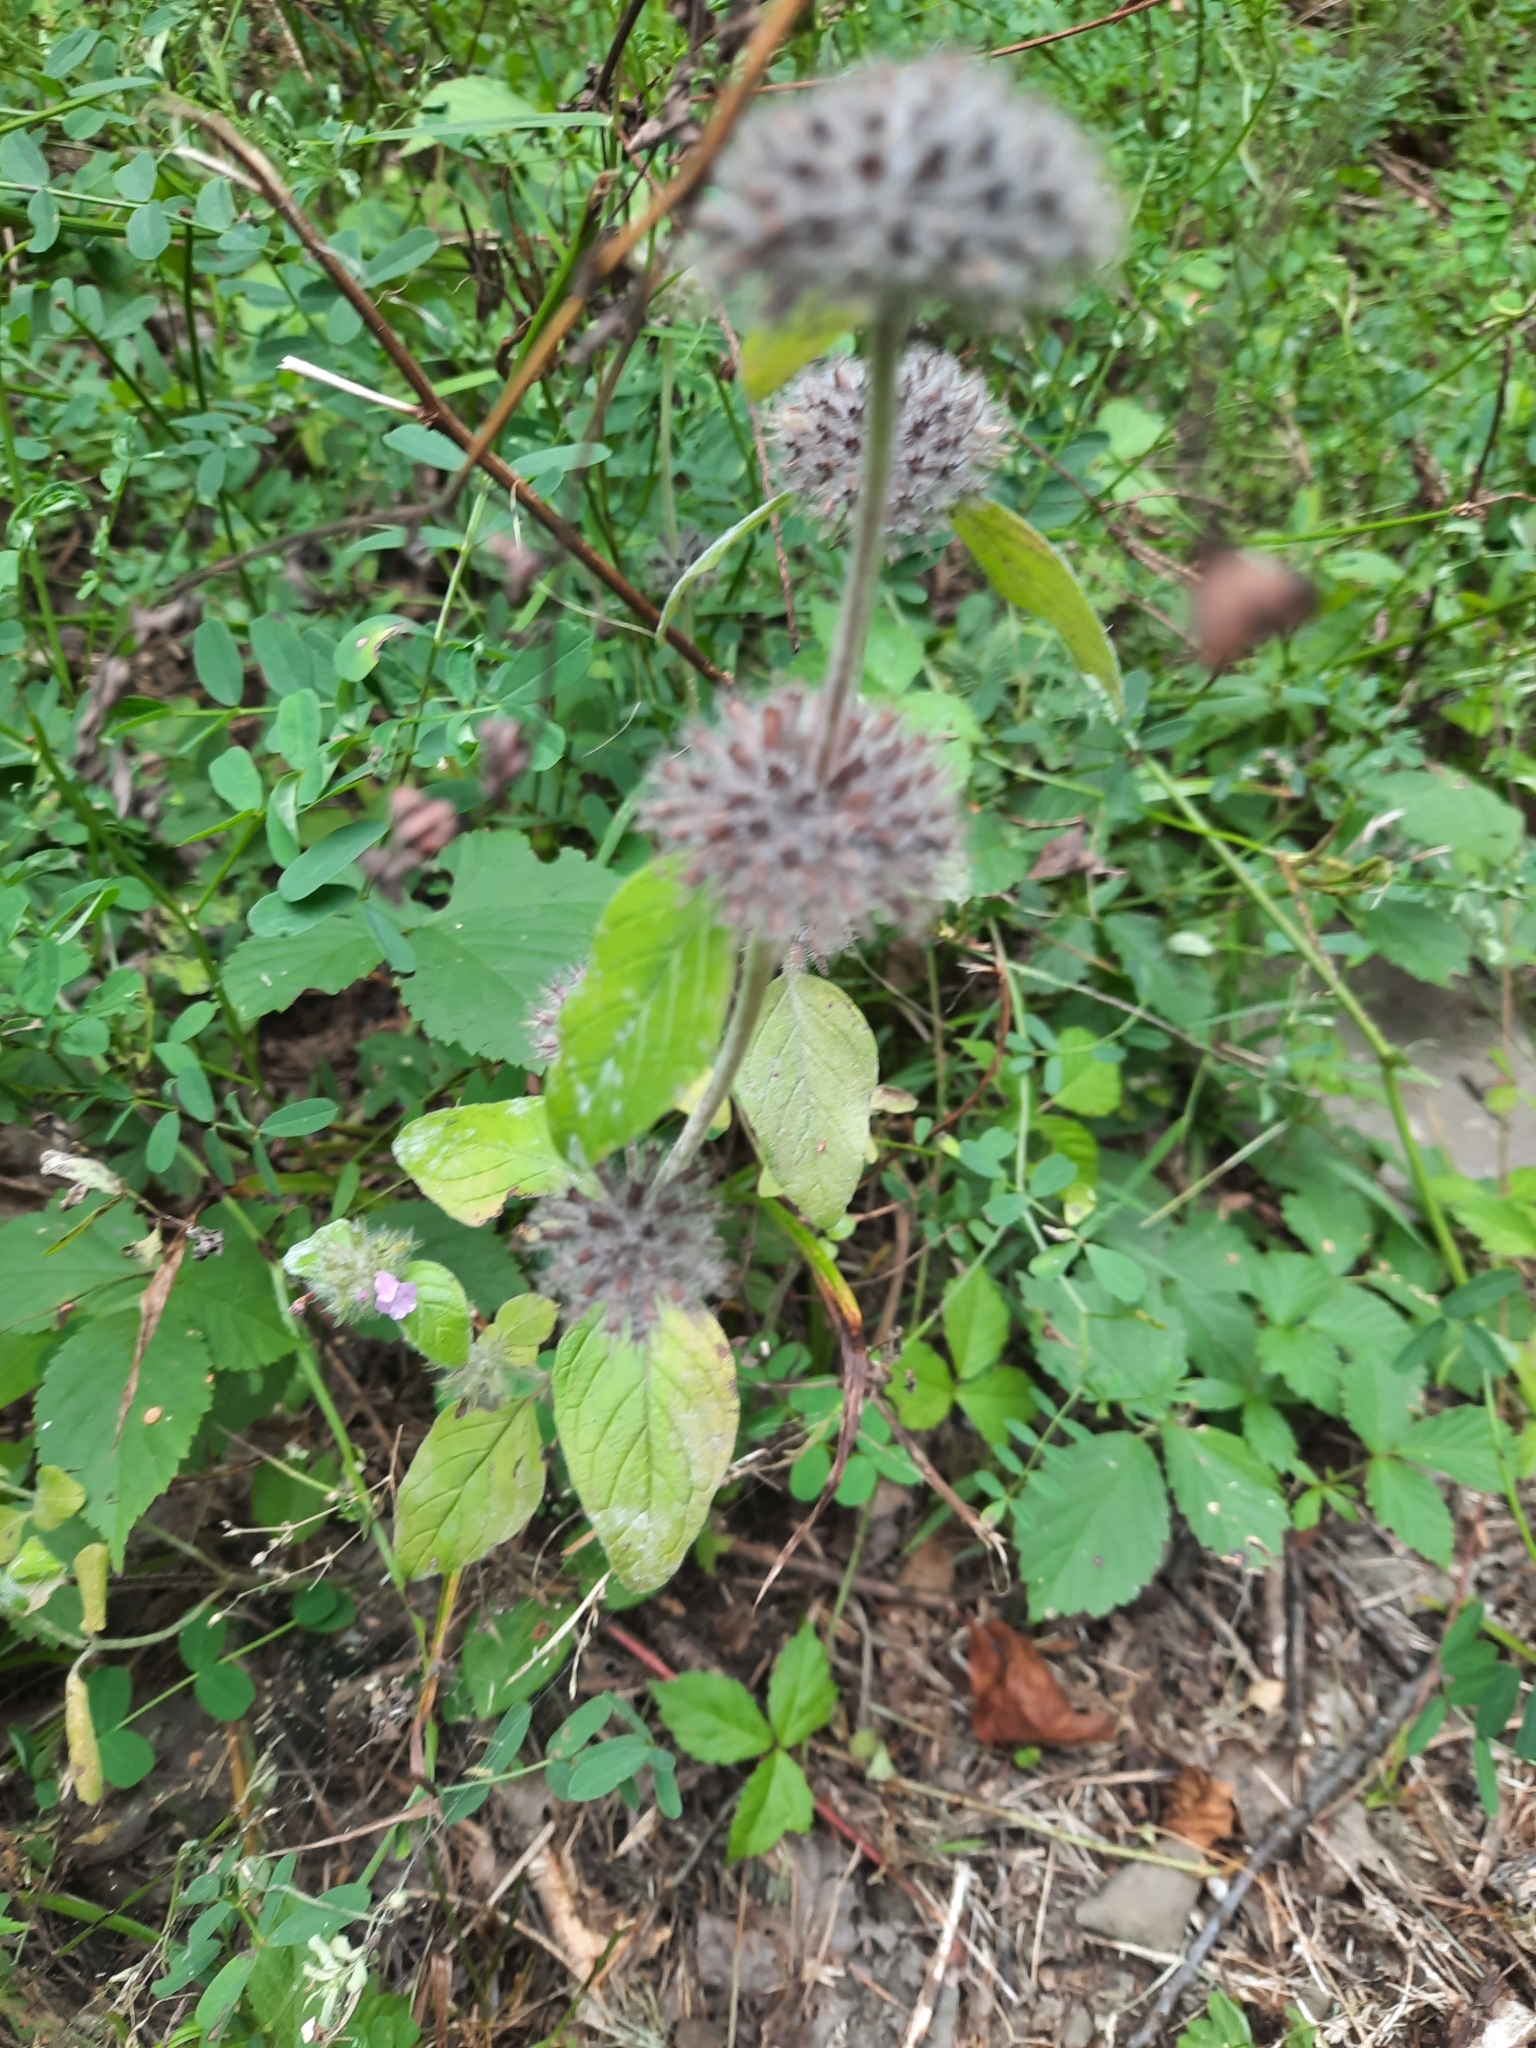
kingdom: Plantae
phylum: Tracheophyta
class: Magnoliopsida
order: Lamiales
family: Lamiaceae
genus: Clinopodium
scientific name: Clinopodium vulgare
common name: Wild basil
